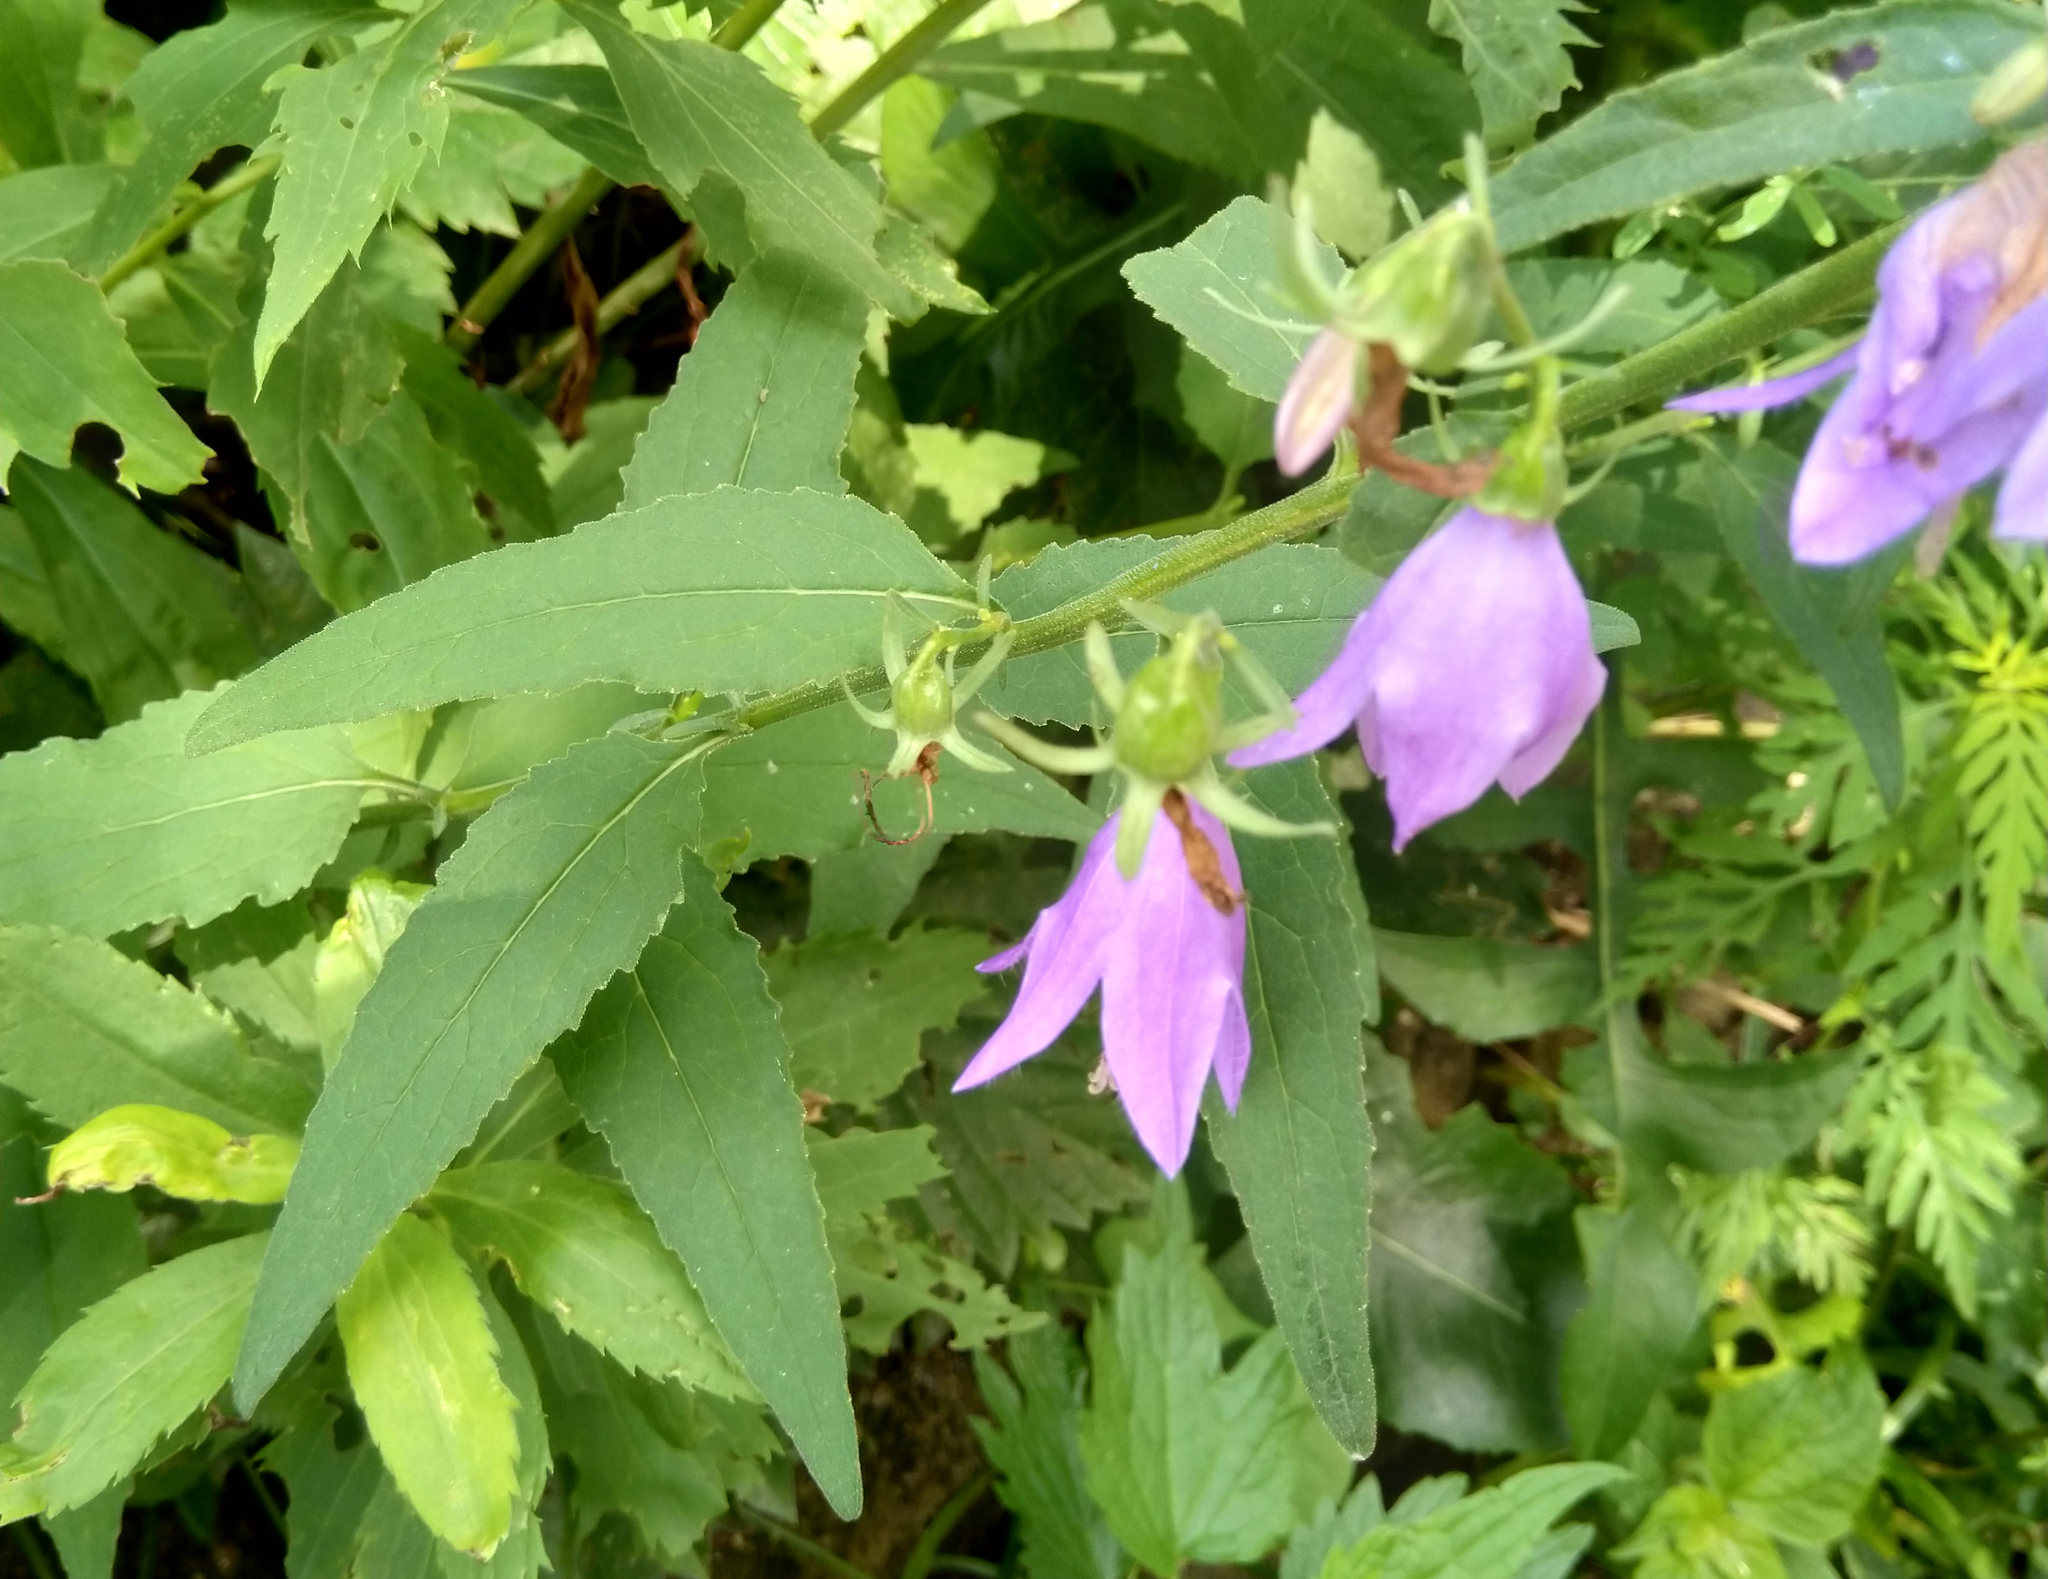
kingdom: Plantae
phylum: Tracheophyta
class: Magnoliopsida
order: Asterales
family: Campanulaceae
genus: Campanula
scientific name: Campanula rapunculoides
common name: Creeping bellflower
